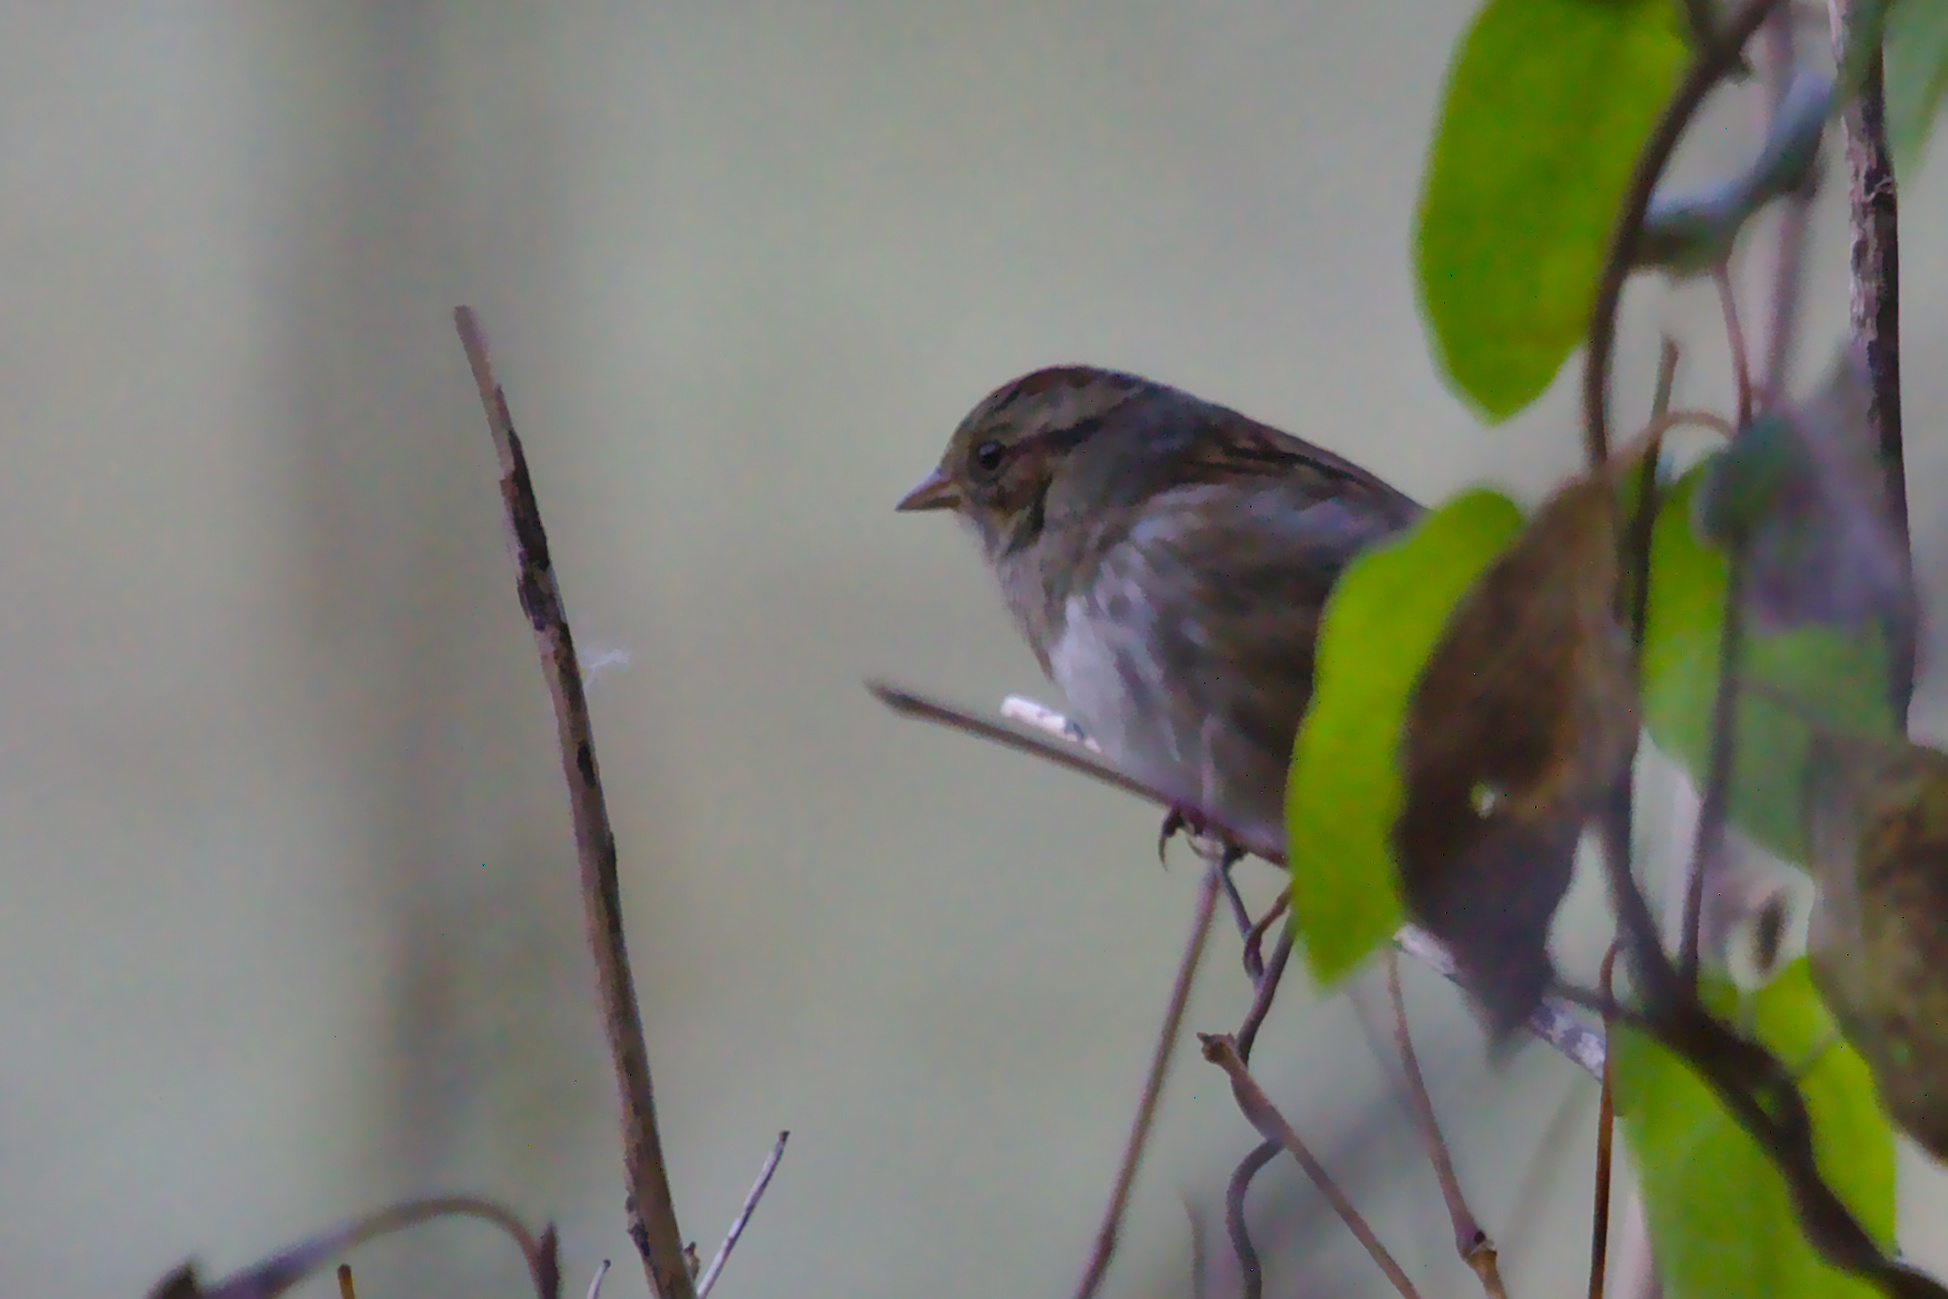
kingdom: Animalia
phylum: Chordata
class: Aves
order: Passeriformes
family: Passerellidae
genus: Melospiza
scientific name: Melospiza georgiana
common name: Swamp sparrow
